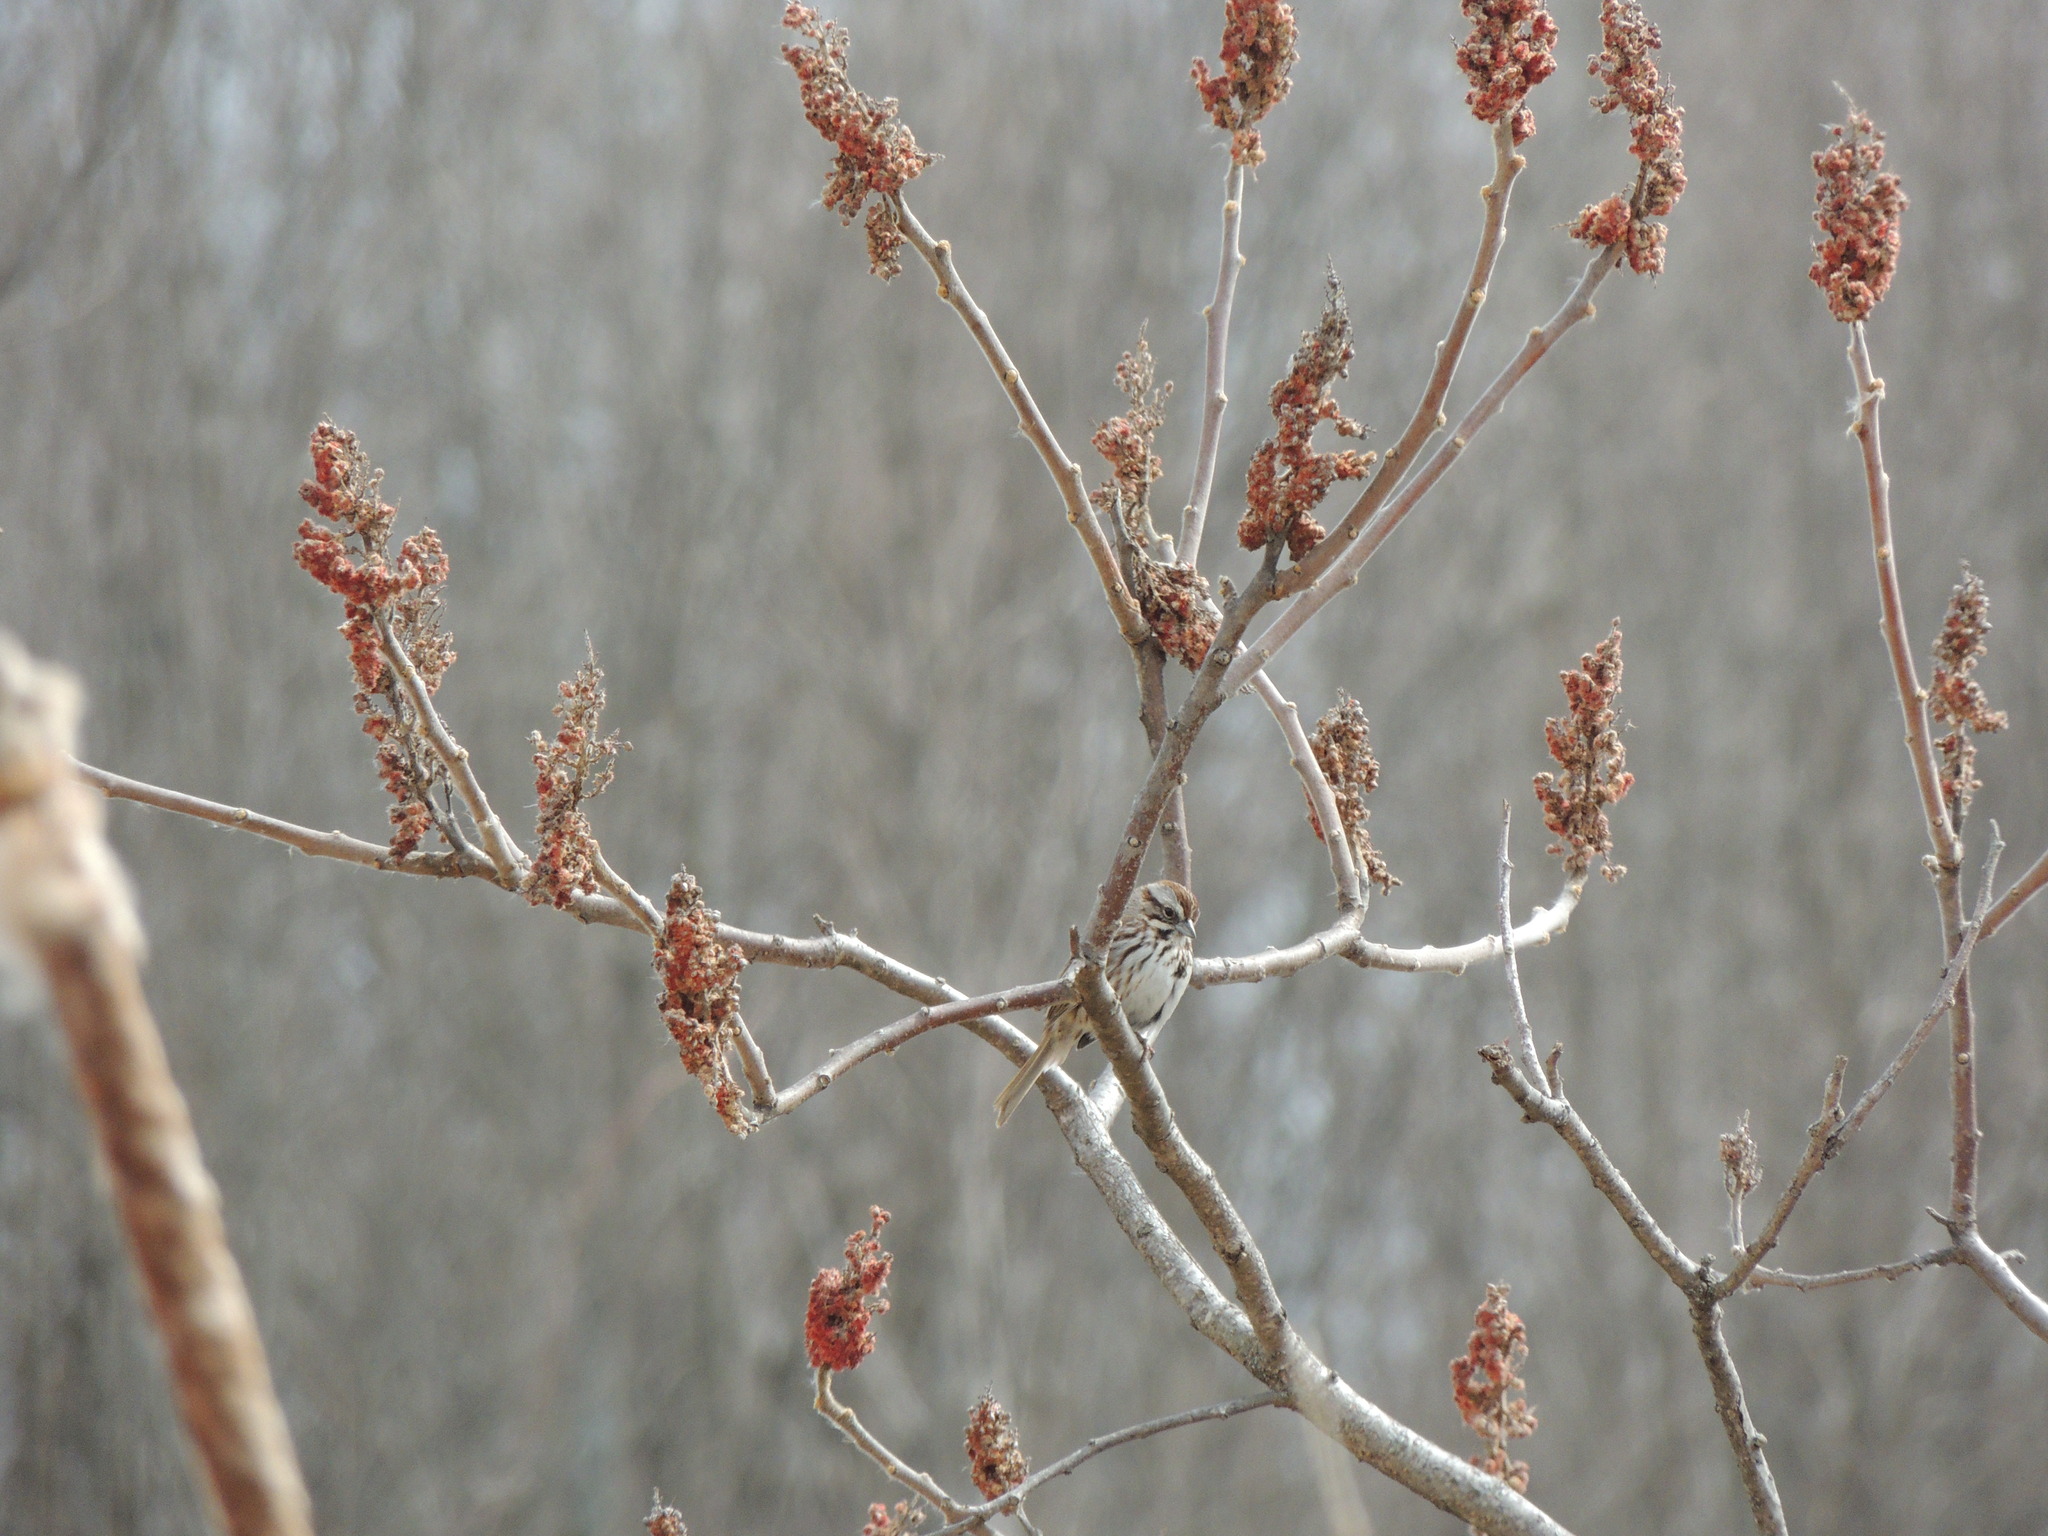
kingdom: Animalia
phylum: Chordata
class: Aves
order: Passeriformes
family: Passerellidae
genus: Melospiza
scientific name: Melospiza melodia
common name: Song sparrow
